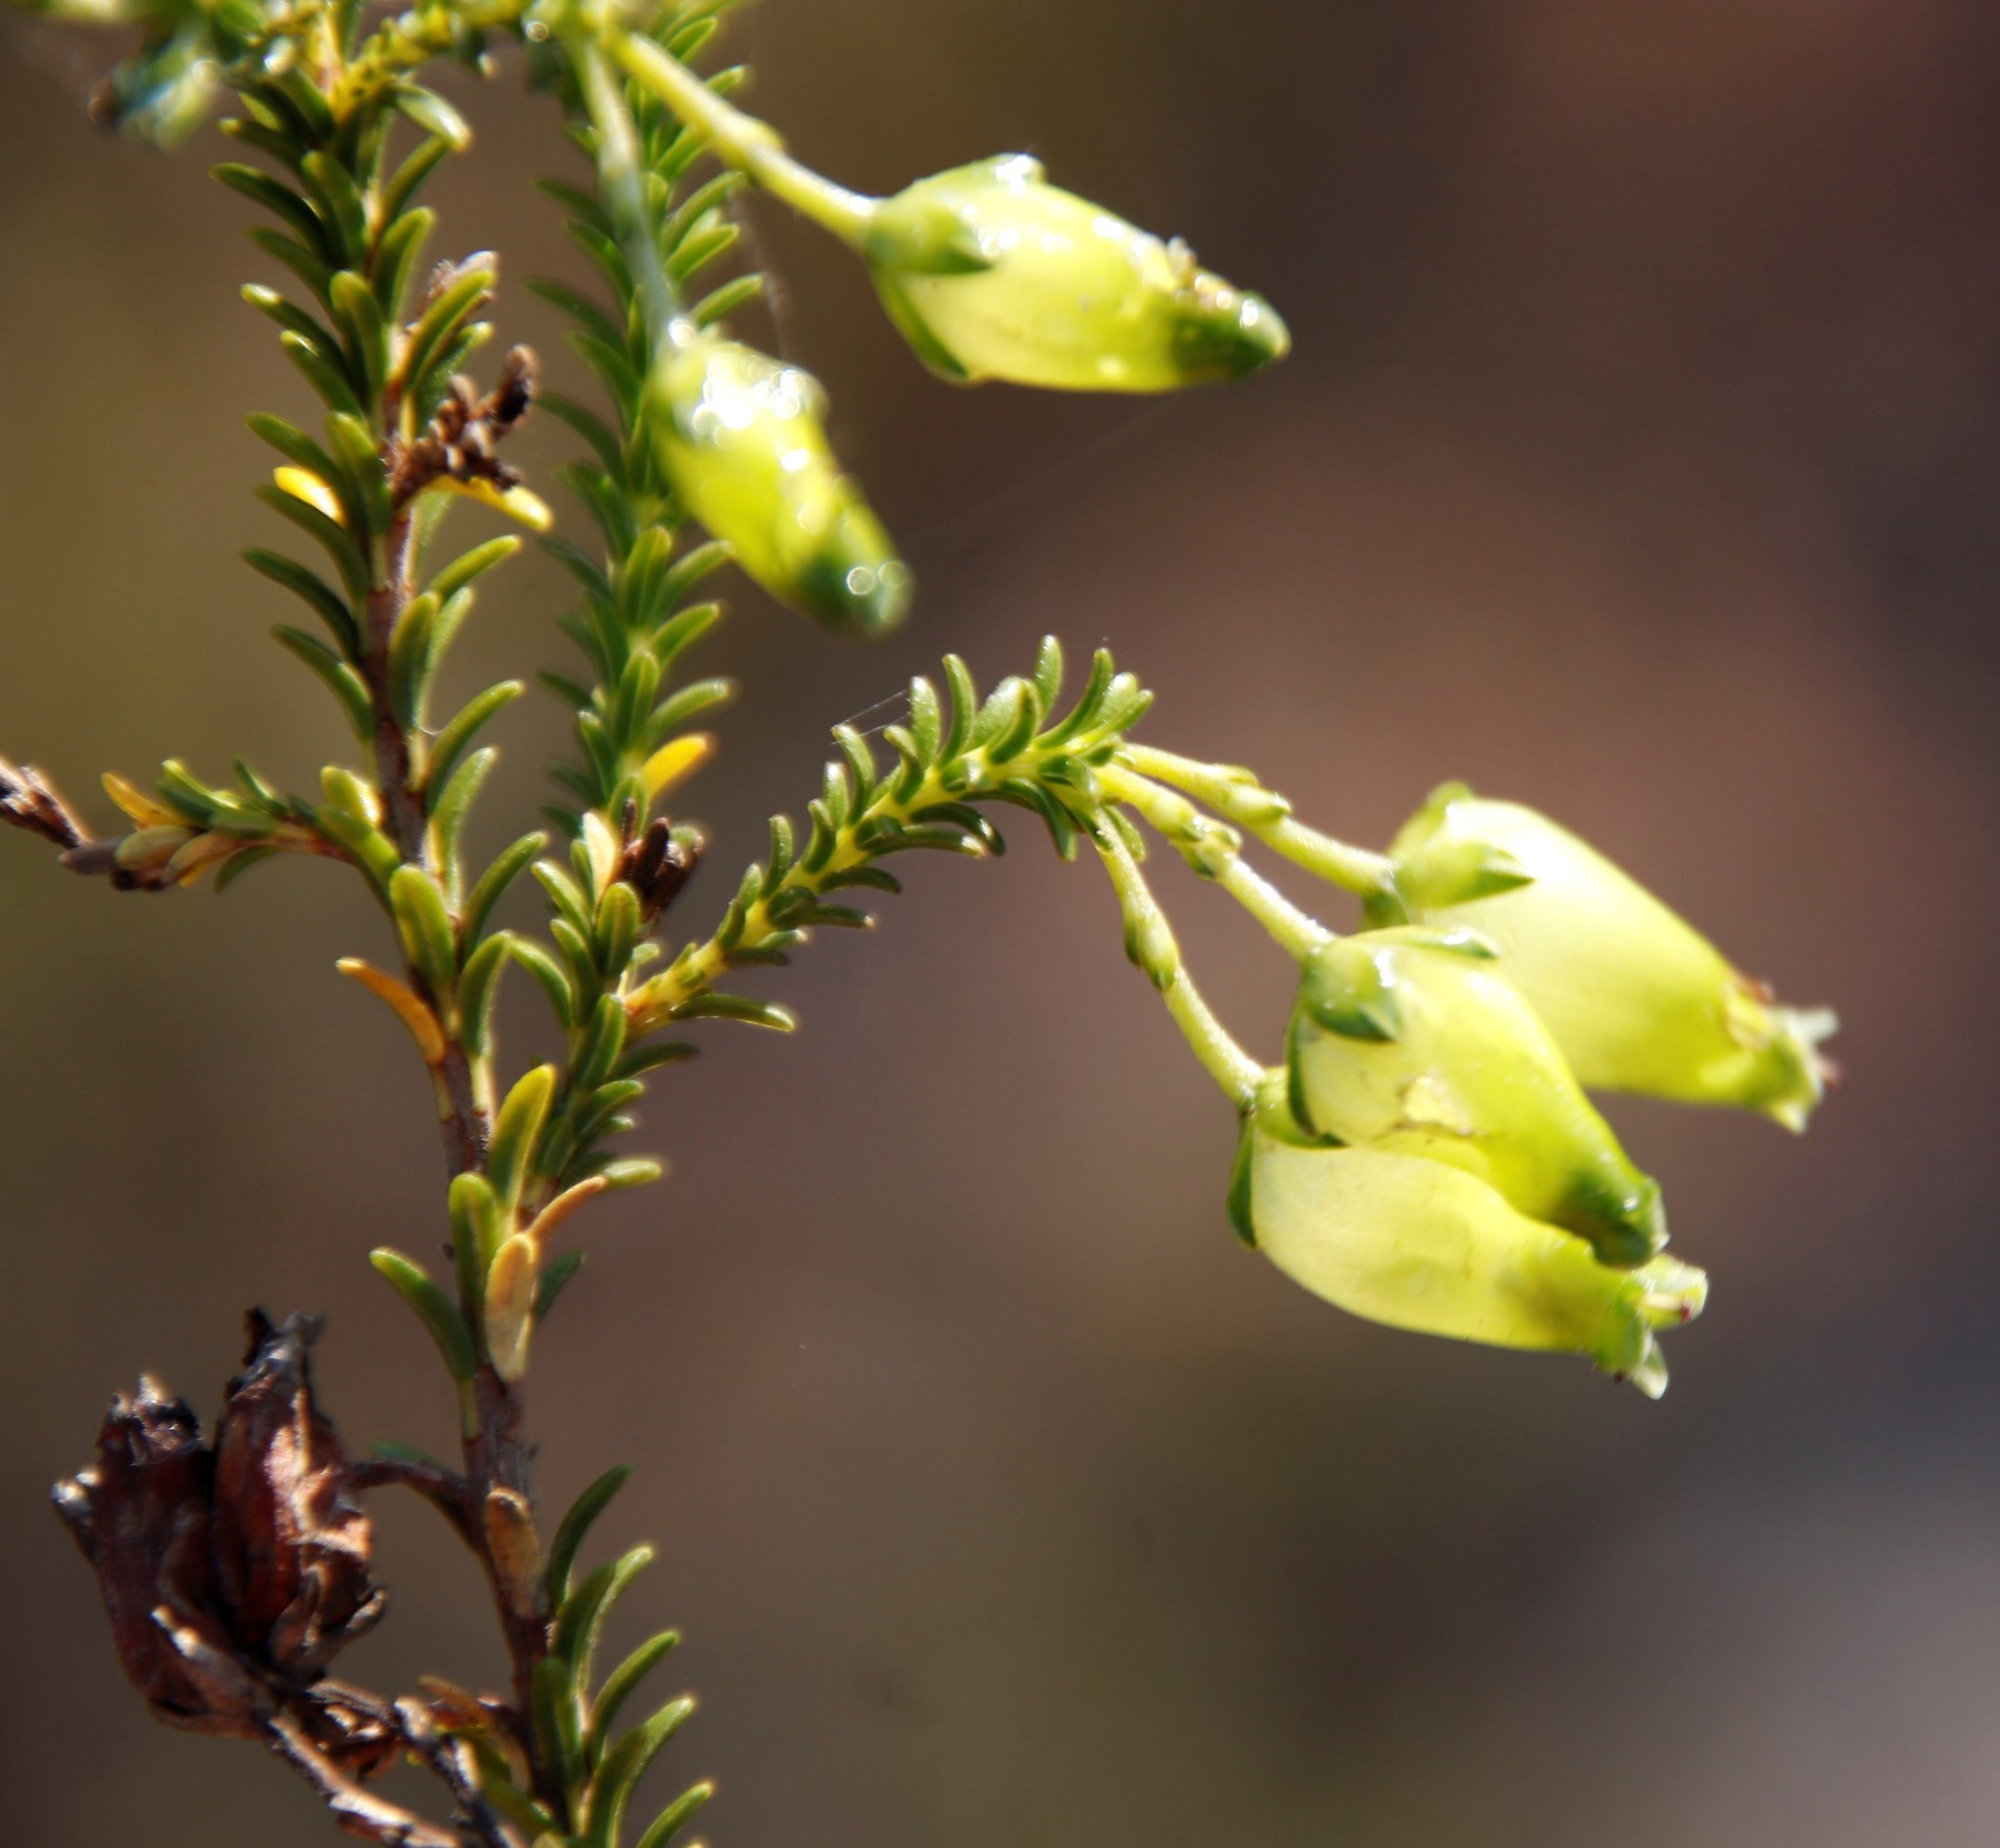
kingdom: Plantae
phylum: Tracheophyta
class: Magnoliopsida
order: Ericales
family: Ericaceae
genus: Erica
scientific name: Erica urna-viridis
